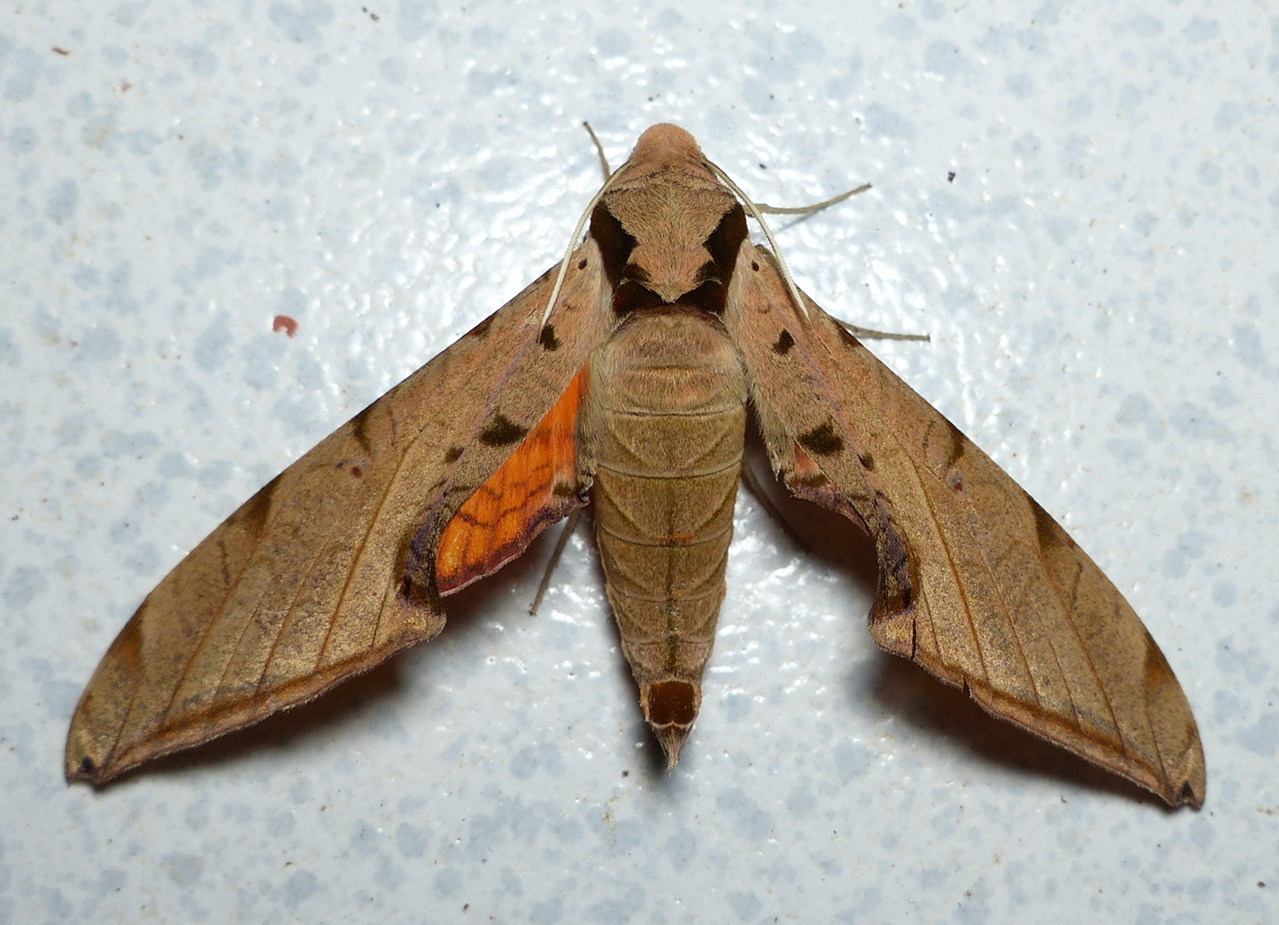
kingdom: Animalia
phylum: Arthropoda
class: Insecta
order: Lepidoptera
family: Sphingidae
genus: Protambulyx
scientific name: Protambulyx strigilis
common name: Streaked sphinx
